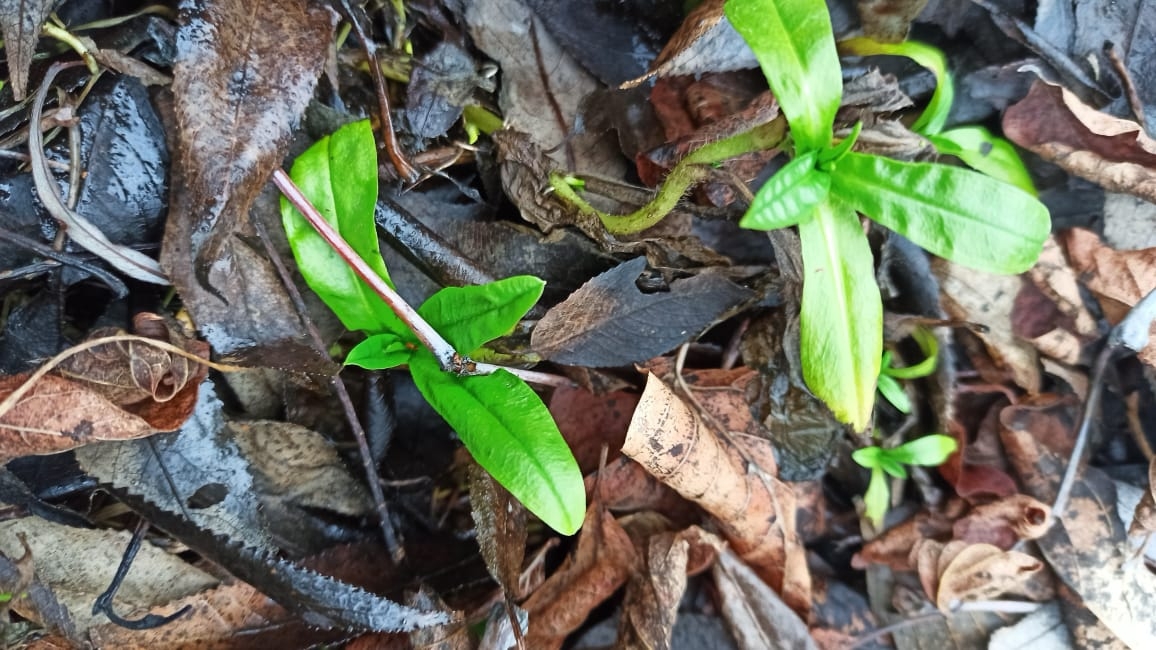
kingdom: Plantae
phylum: Tracheophyta
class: Magnoliopsida
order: Boraginales
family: Boraginaceae
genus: Myosotis
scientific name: Myosotis scorpioides
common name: Water forget-me-not
